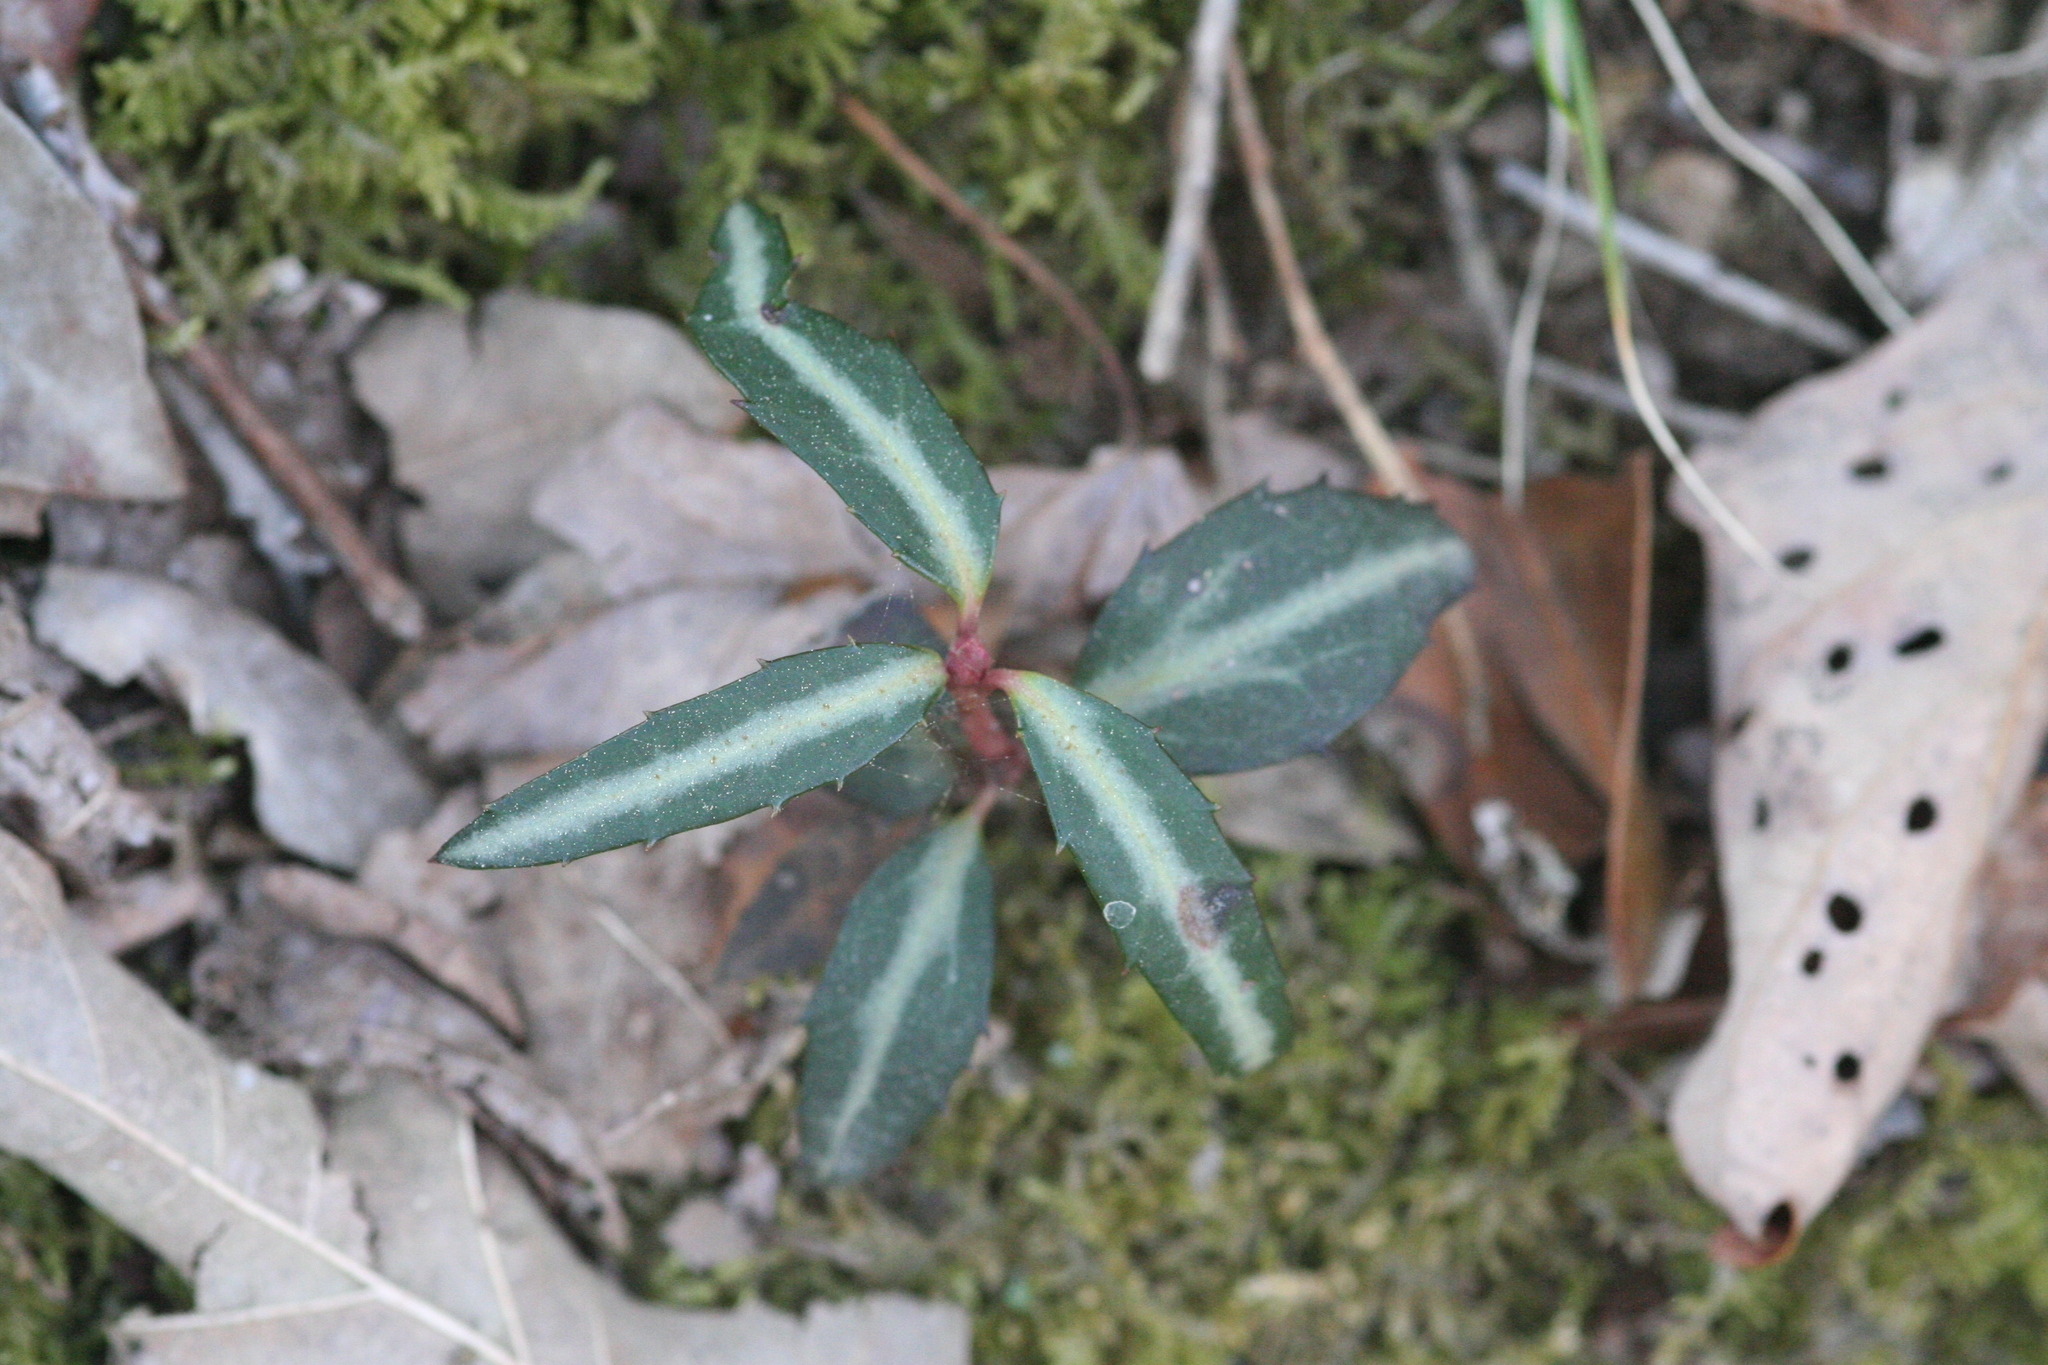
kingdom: Plantae
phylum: Tracheophyta
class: Magnoliopsida
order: Ericales
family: Ericaceae
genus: Chimaphila
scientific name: Chimaphila maculata
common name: Spotted pipsissewa
